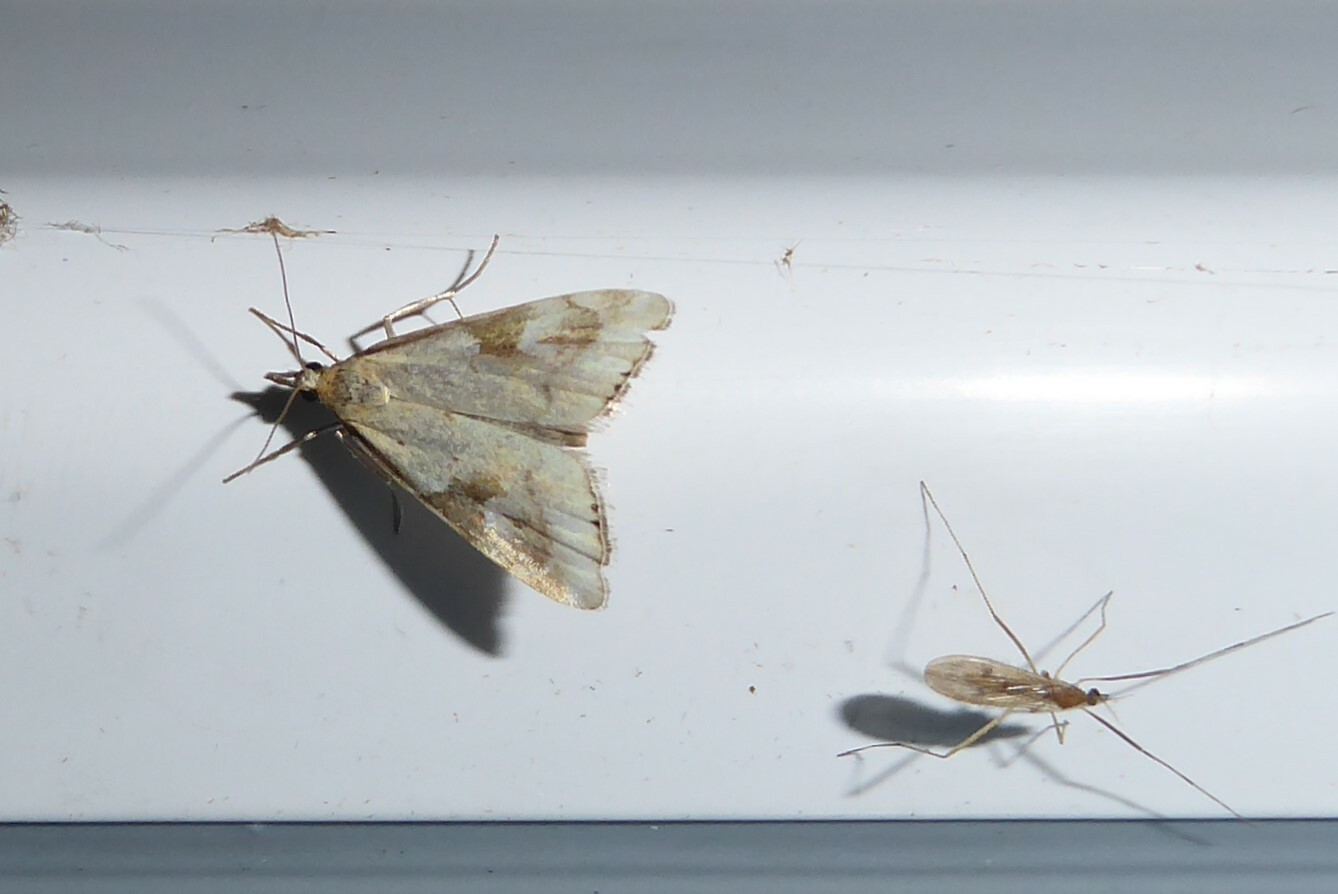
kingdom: Animalia
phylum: Arthropoda
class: Insecta
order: Lepidoptera
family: Crambidae
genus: Glaucocharis
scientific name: Glaucocharis lepidella
